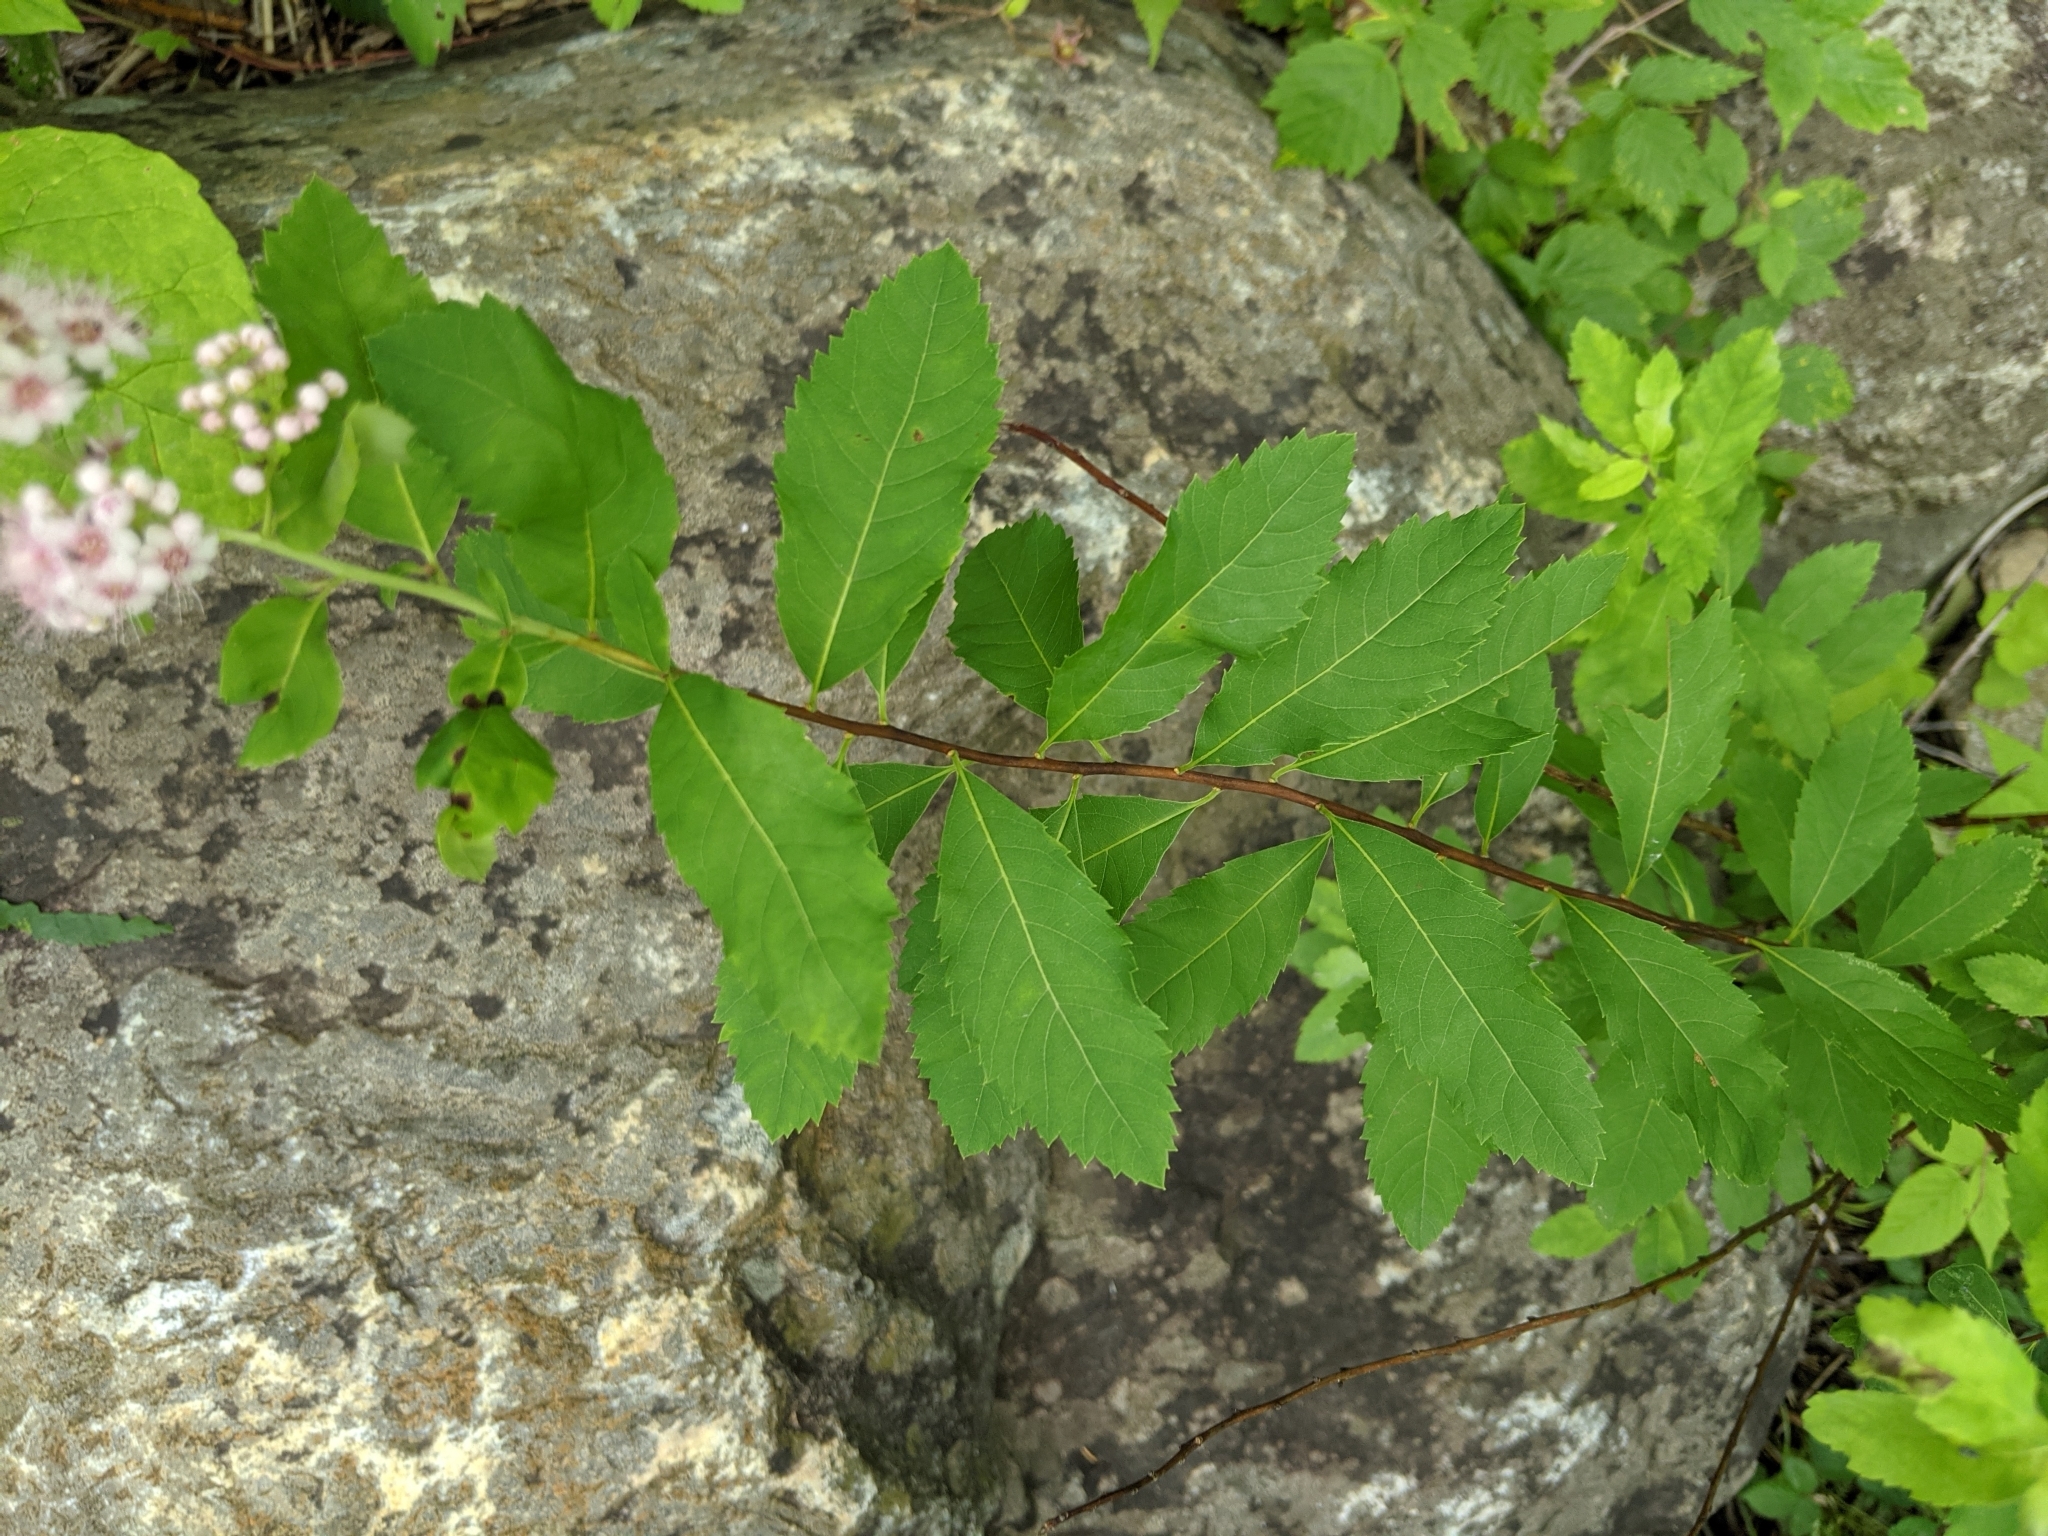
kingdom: Plantae
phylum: Tracheophyta
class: Magnoliopsida
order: Rosales
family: Rosaceae
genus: Spiraea
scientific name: Spiraea alba
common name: Pale bridewort
